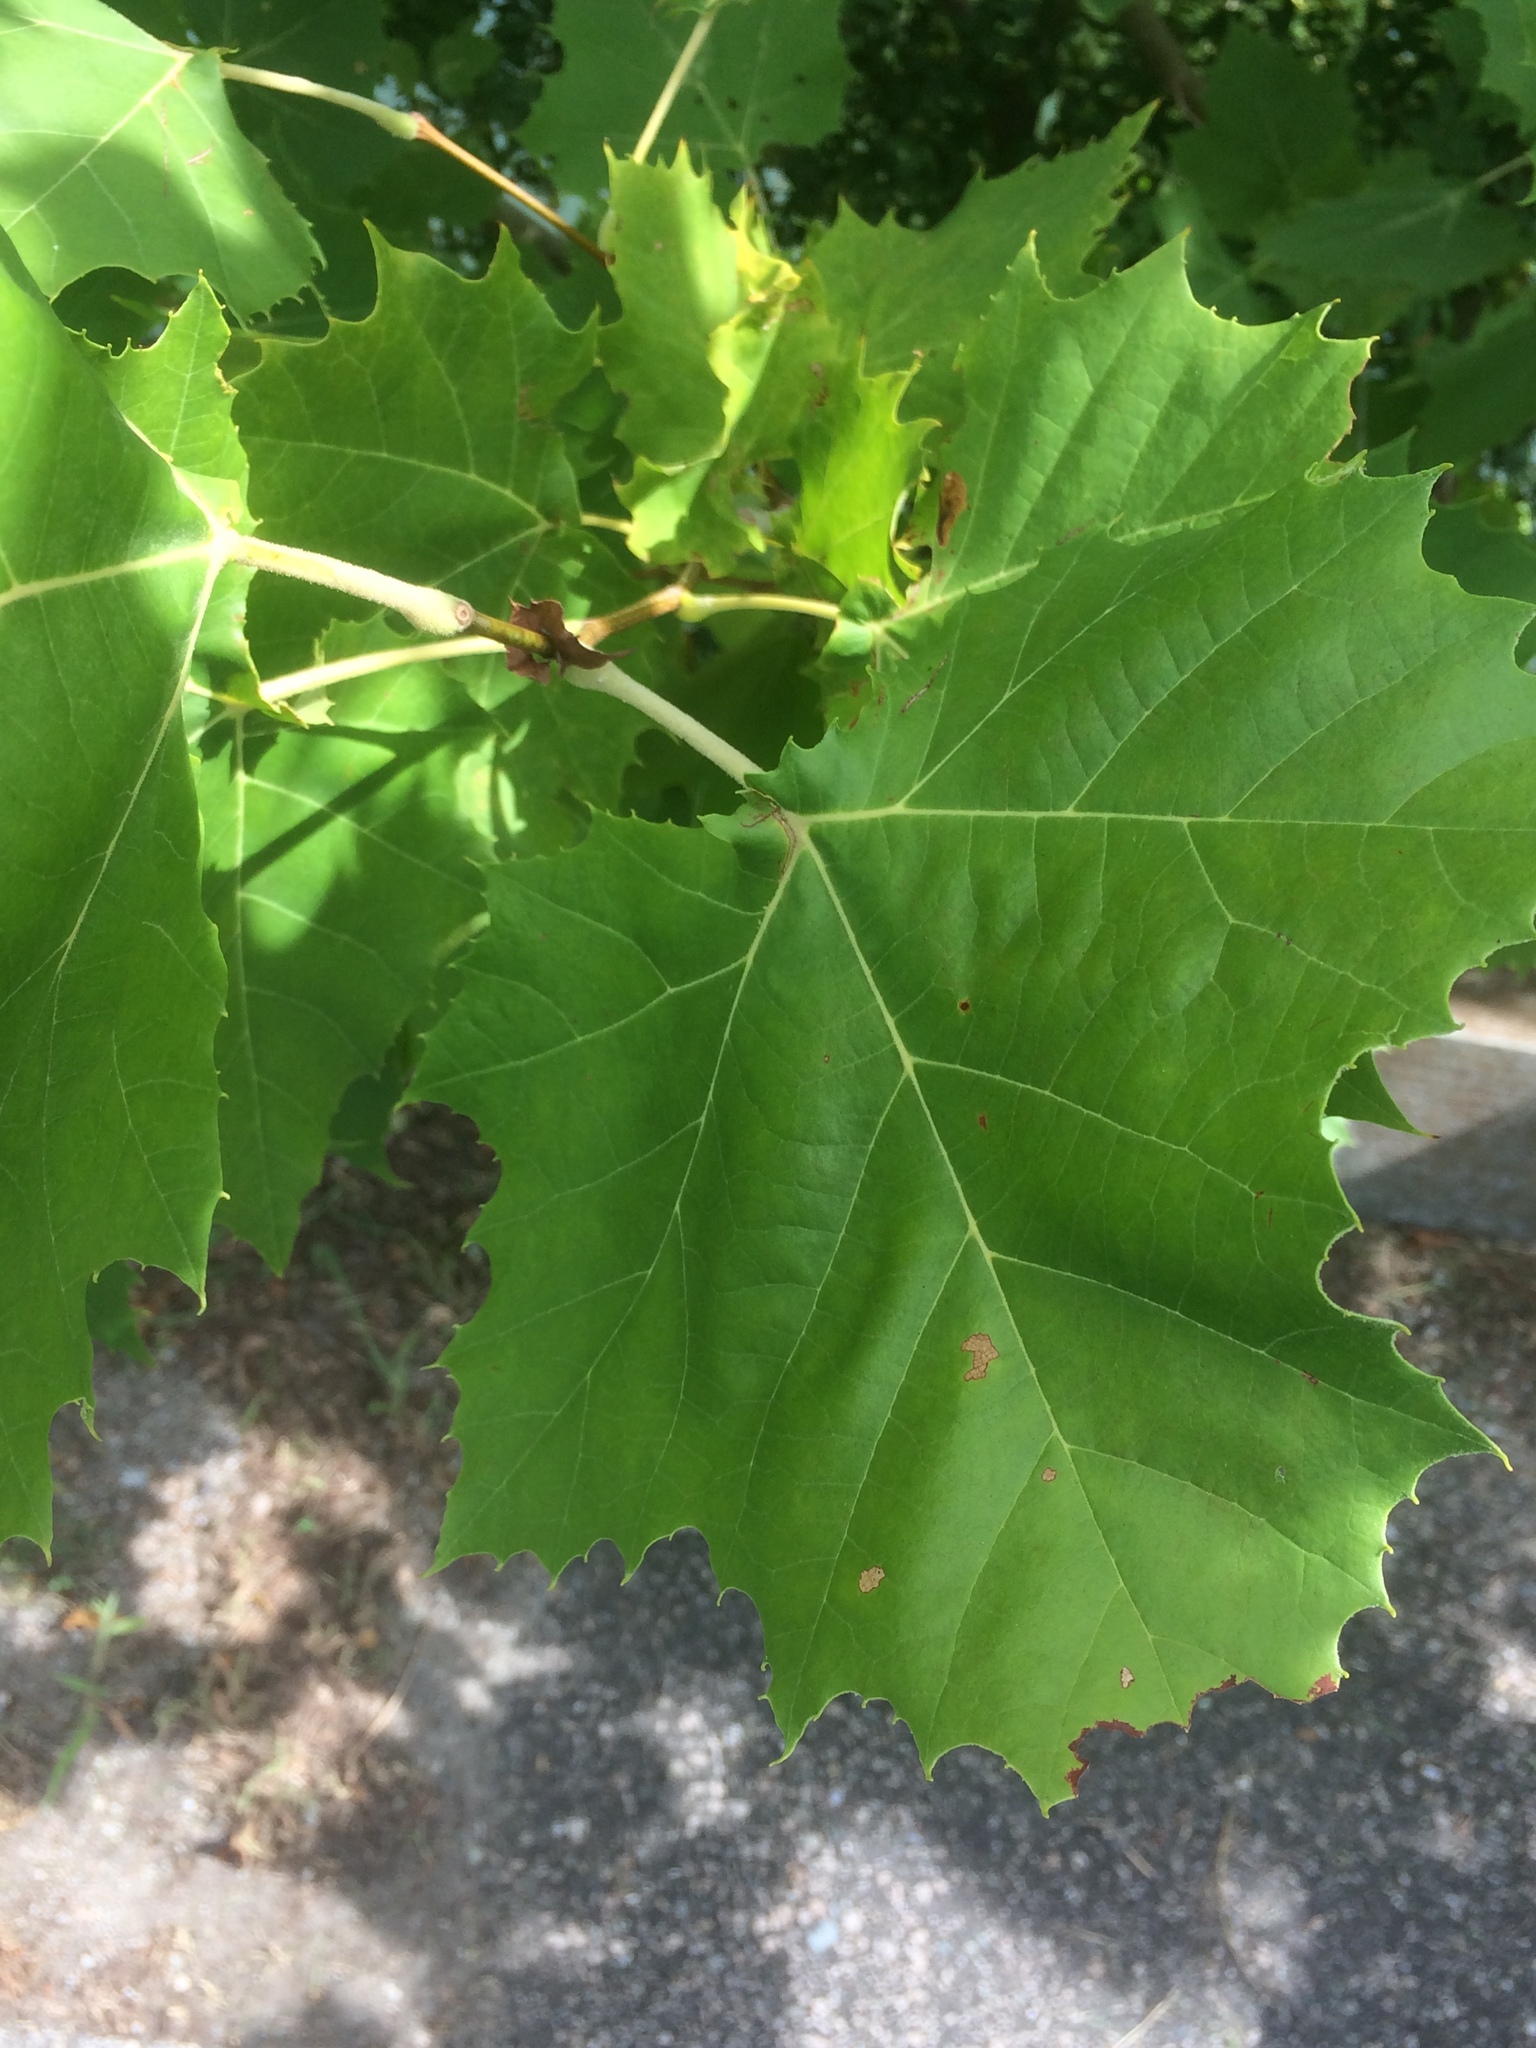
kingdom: Plantae
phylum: Tracheophyta
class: Magnoliopsida
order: Proteales
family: Platanaceae
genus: Platanus
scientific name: Platanus occidentalis
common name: American sycamore
